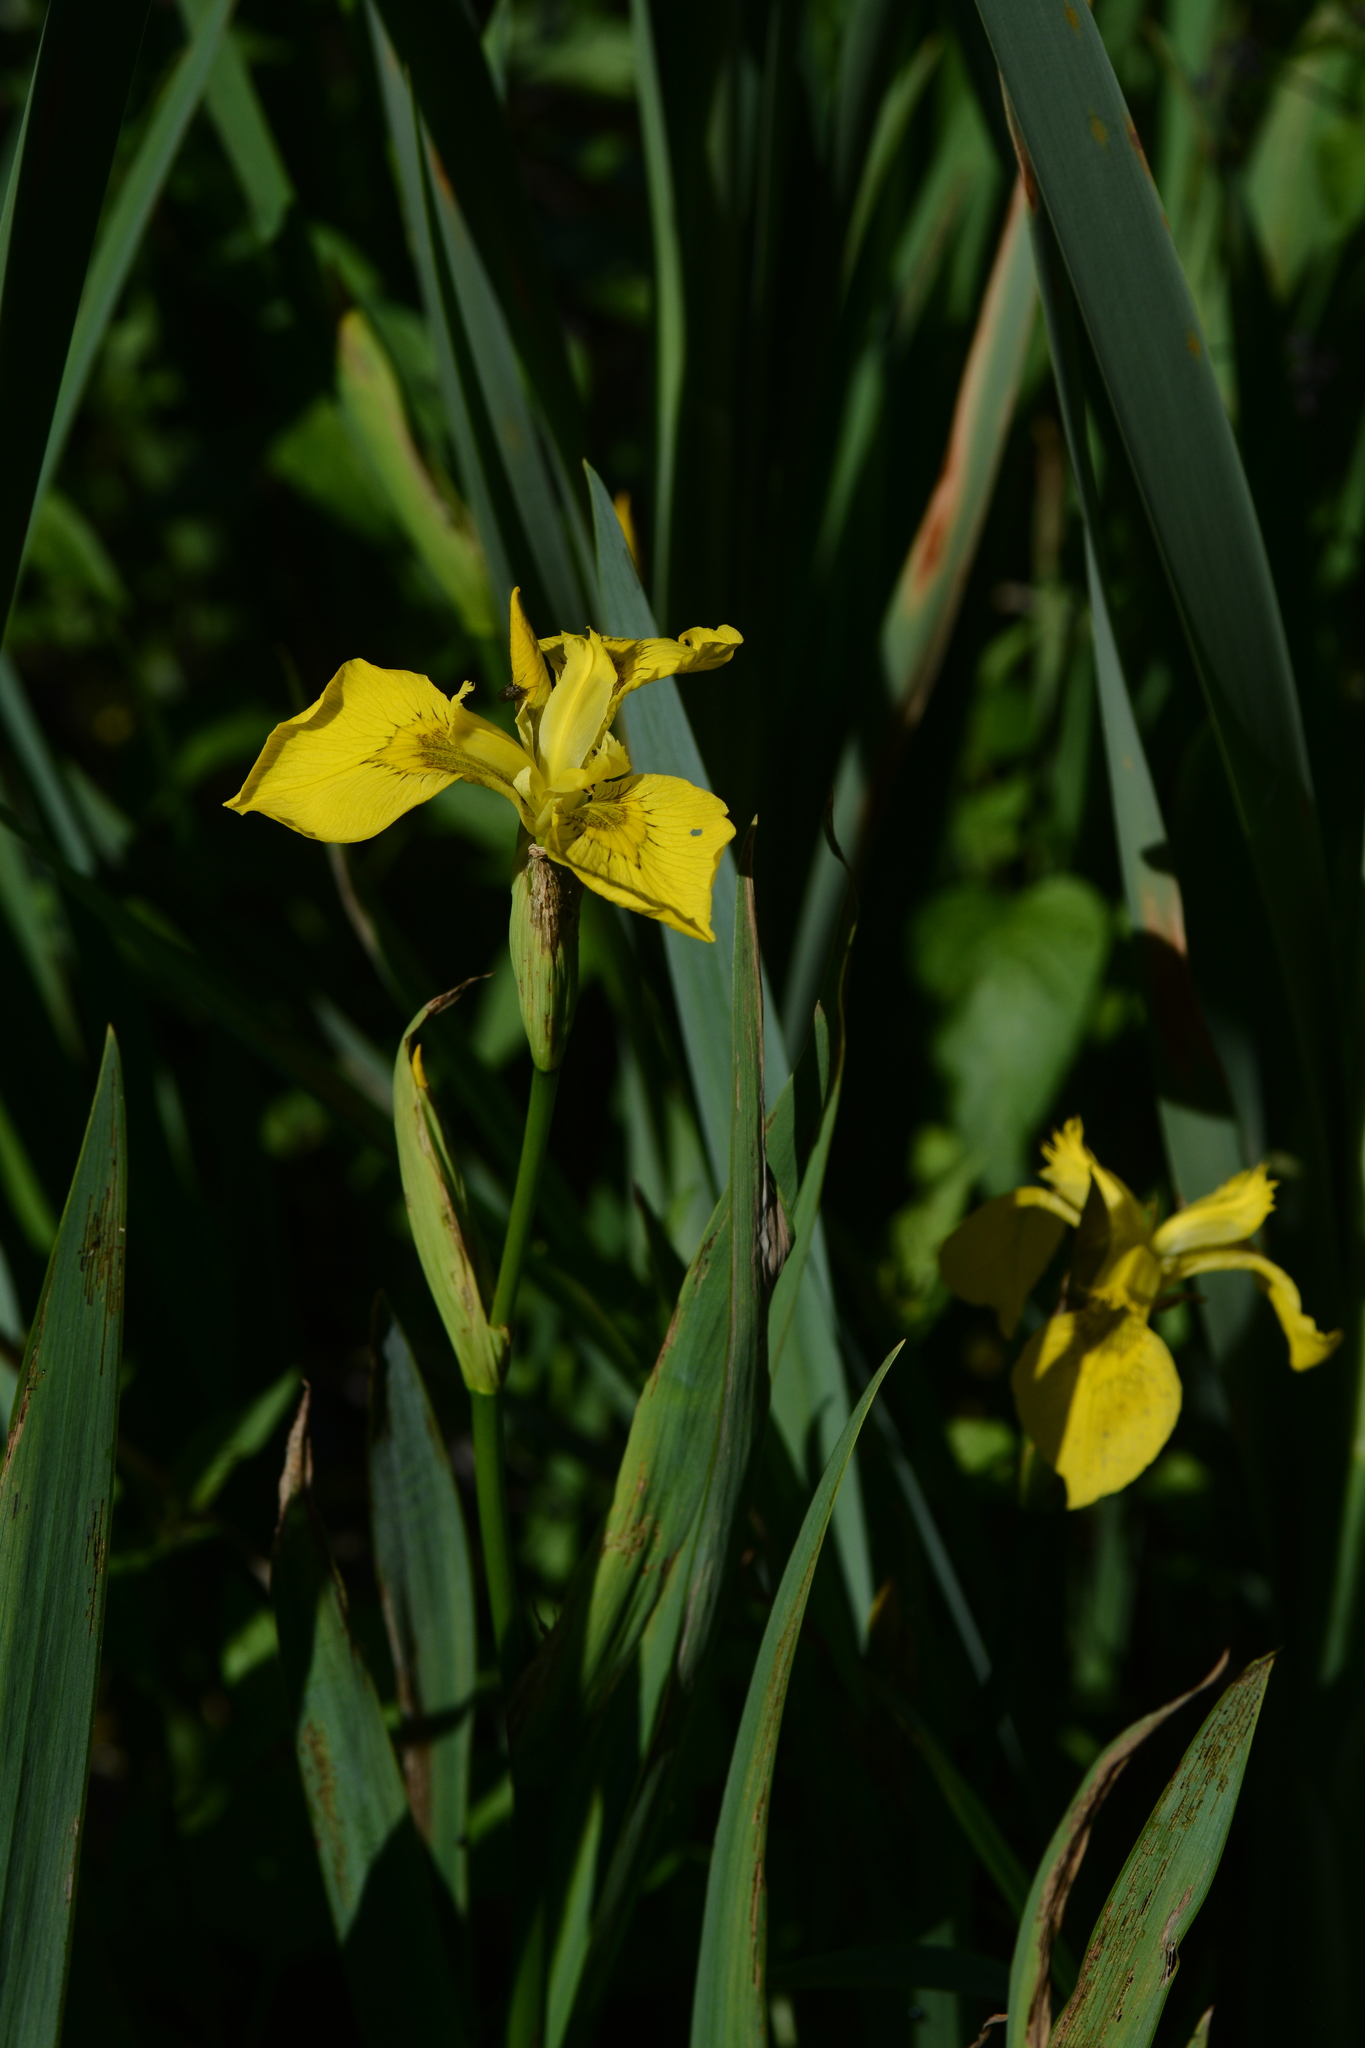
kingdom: Plantae
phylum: Tracheophyta
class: Liliopsida
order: Asparagales
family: Iridaceae
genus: Iris
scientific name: Iris pseudacorus
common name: Yellow flag
